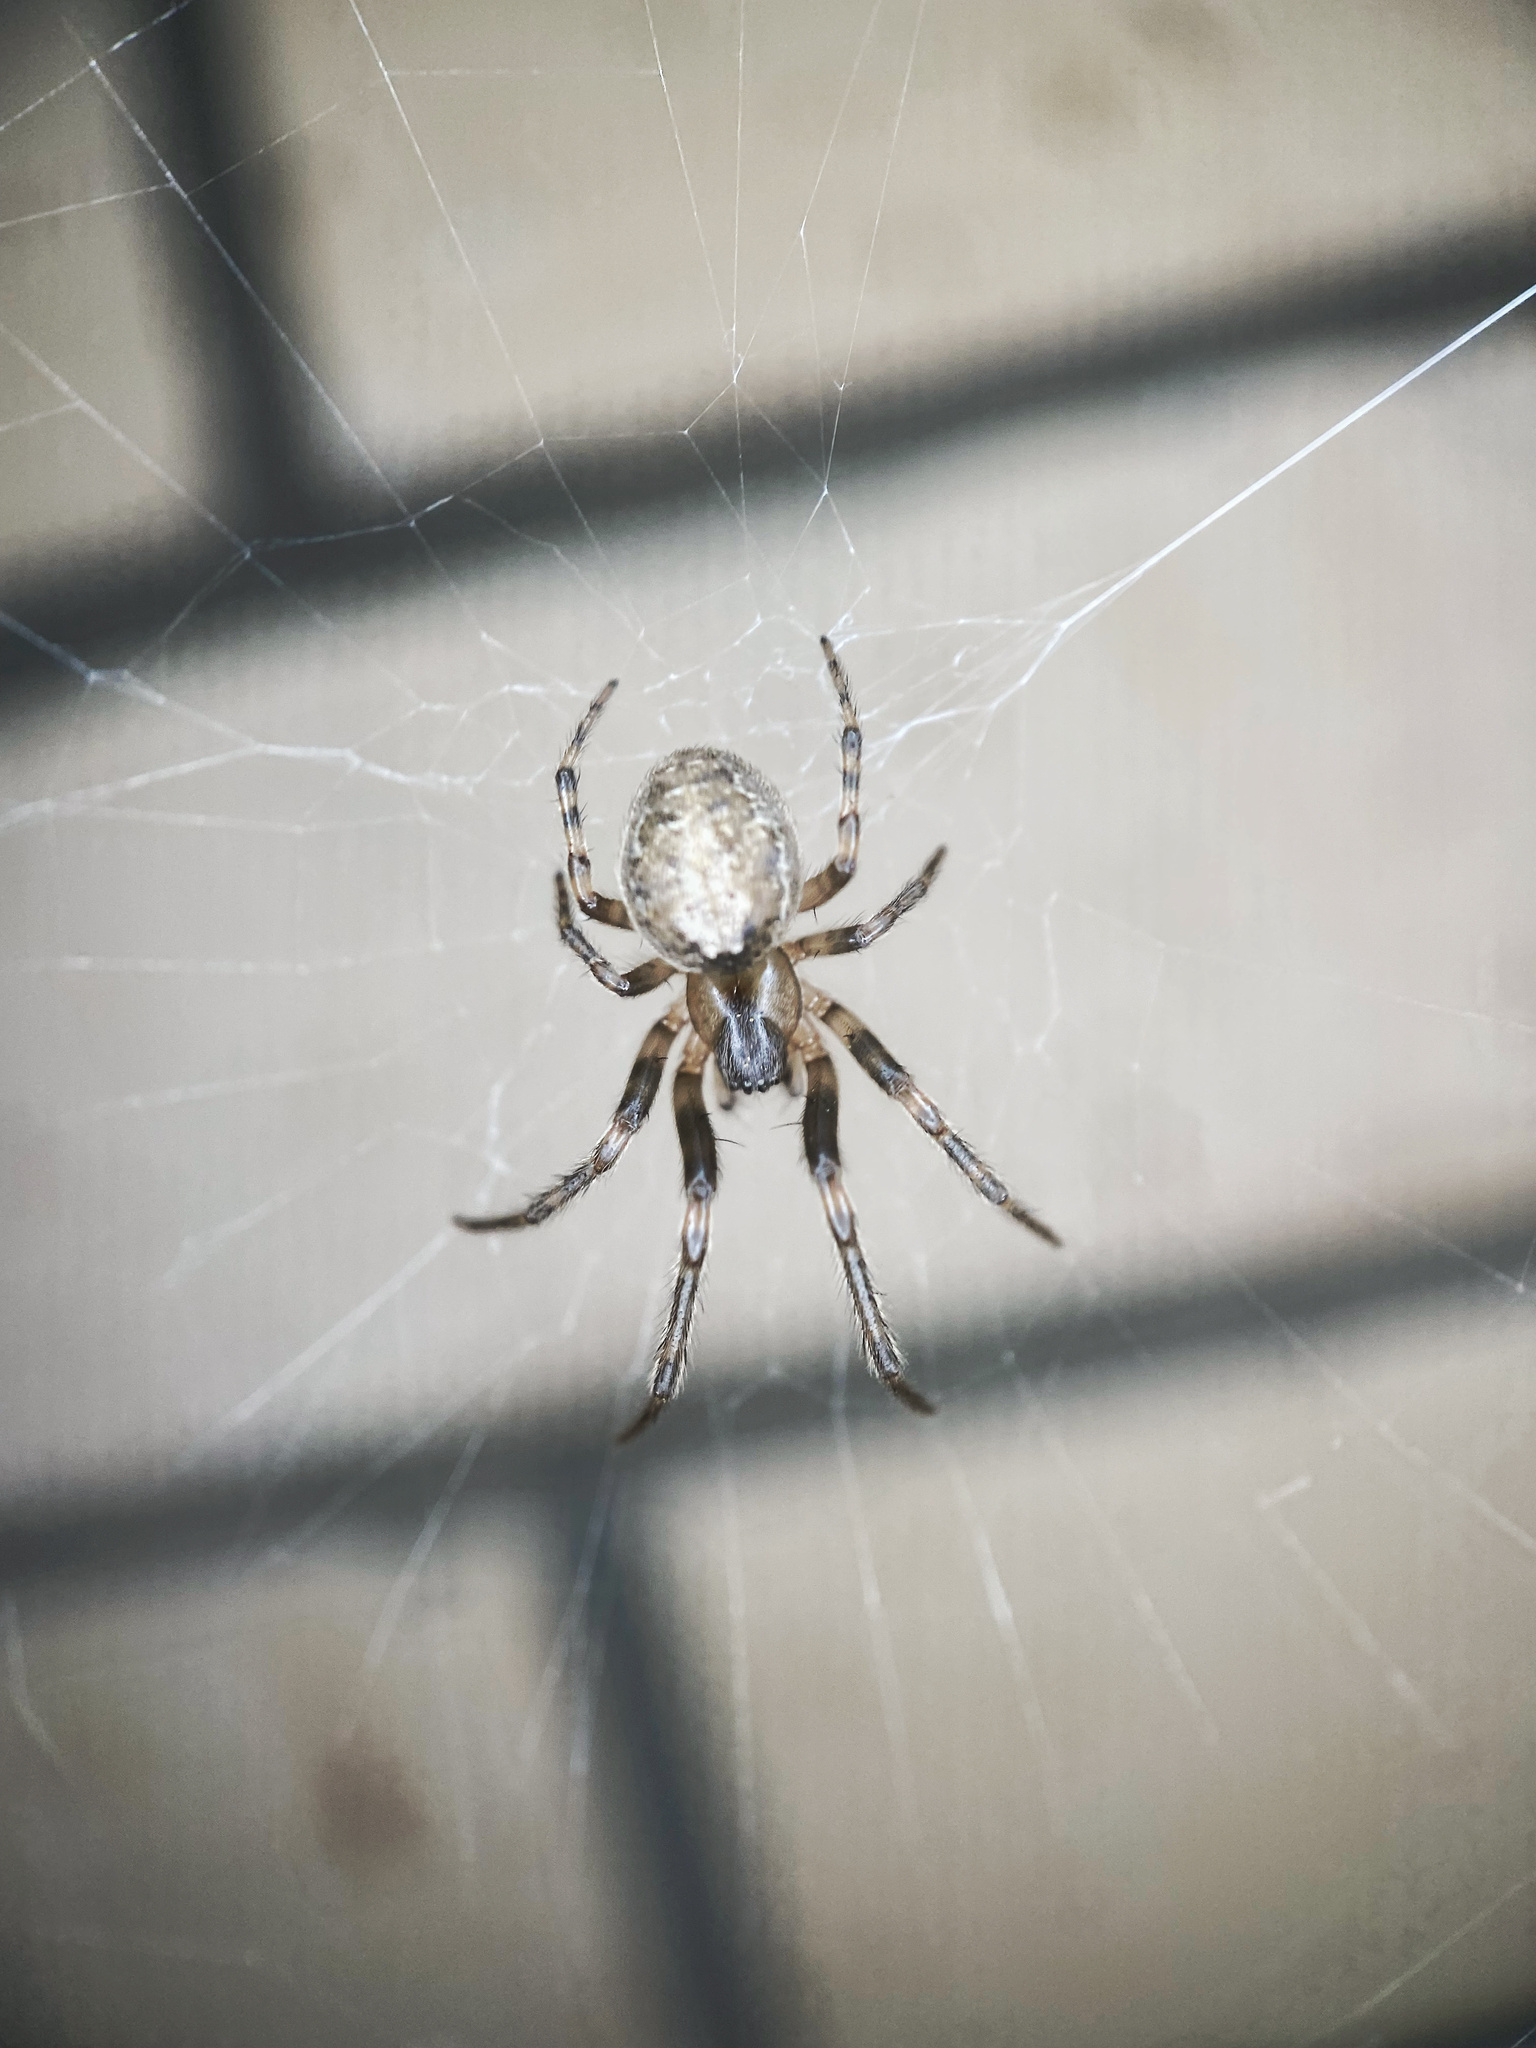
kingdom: Animalia
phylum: Arthropoda
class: Arachnida
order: Araneae
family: Araneidae
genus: Zygiella
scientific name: Zygiella x-notata
